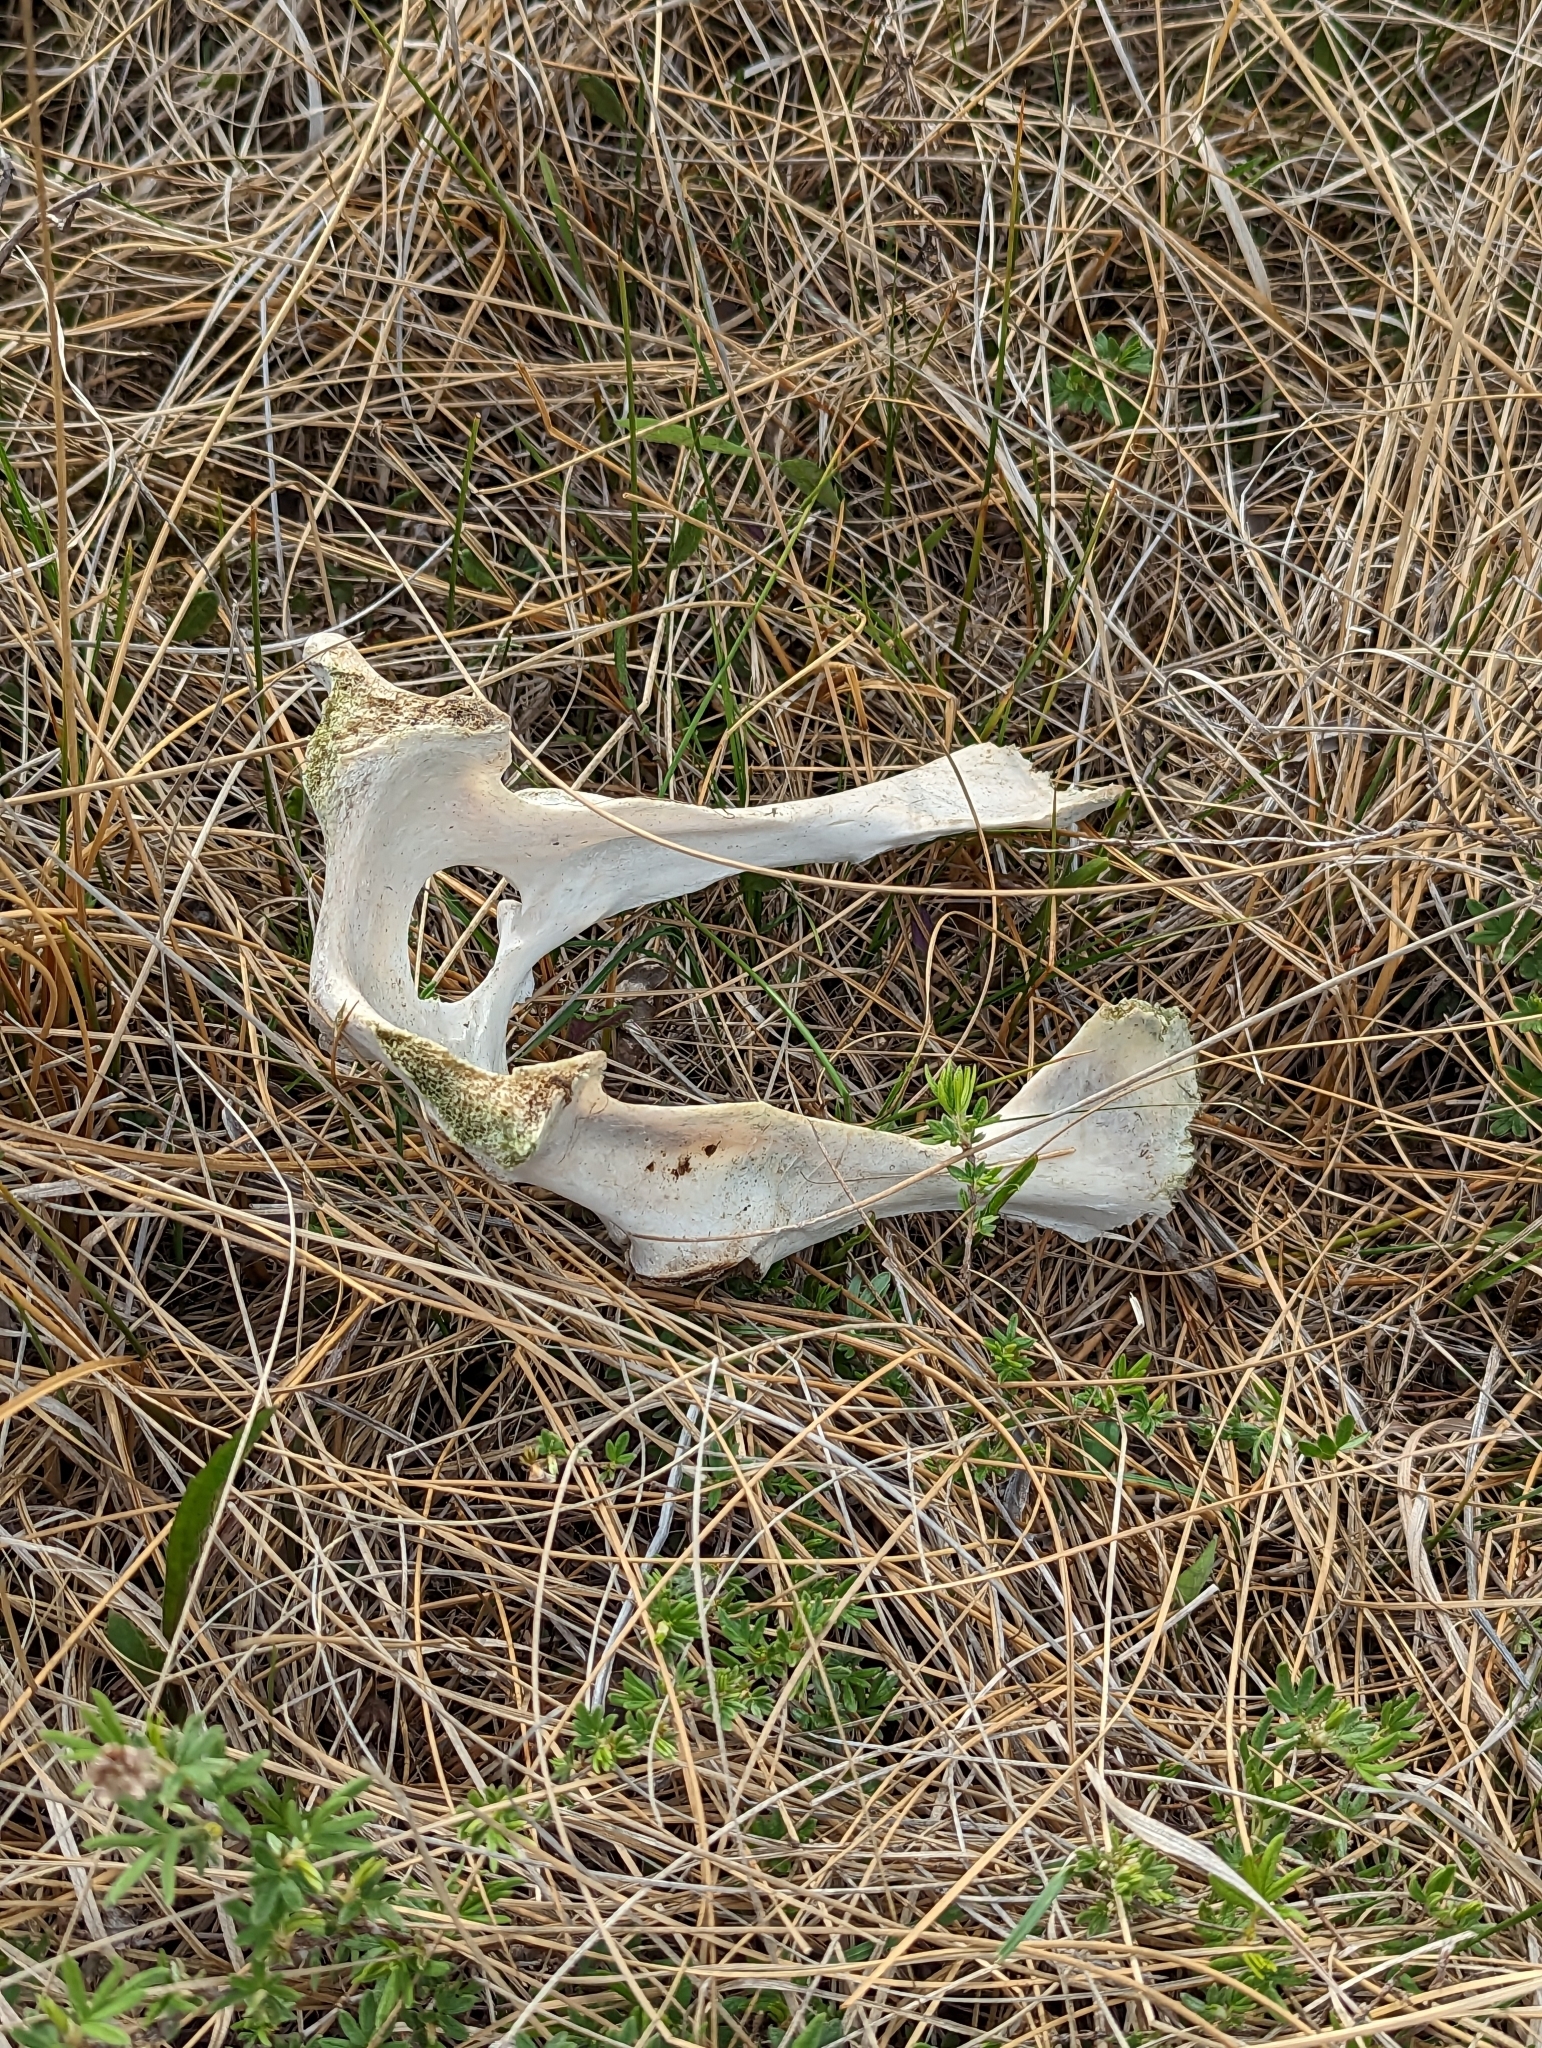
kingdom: Animalia
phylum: Chordata
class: Mammalia
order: Artiodactyla
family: Cervidae
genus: Odocoileus
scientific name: Odocoileus virginianus
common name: White-tailed deer
